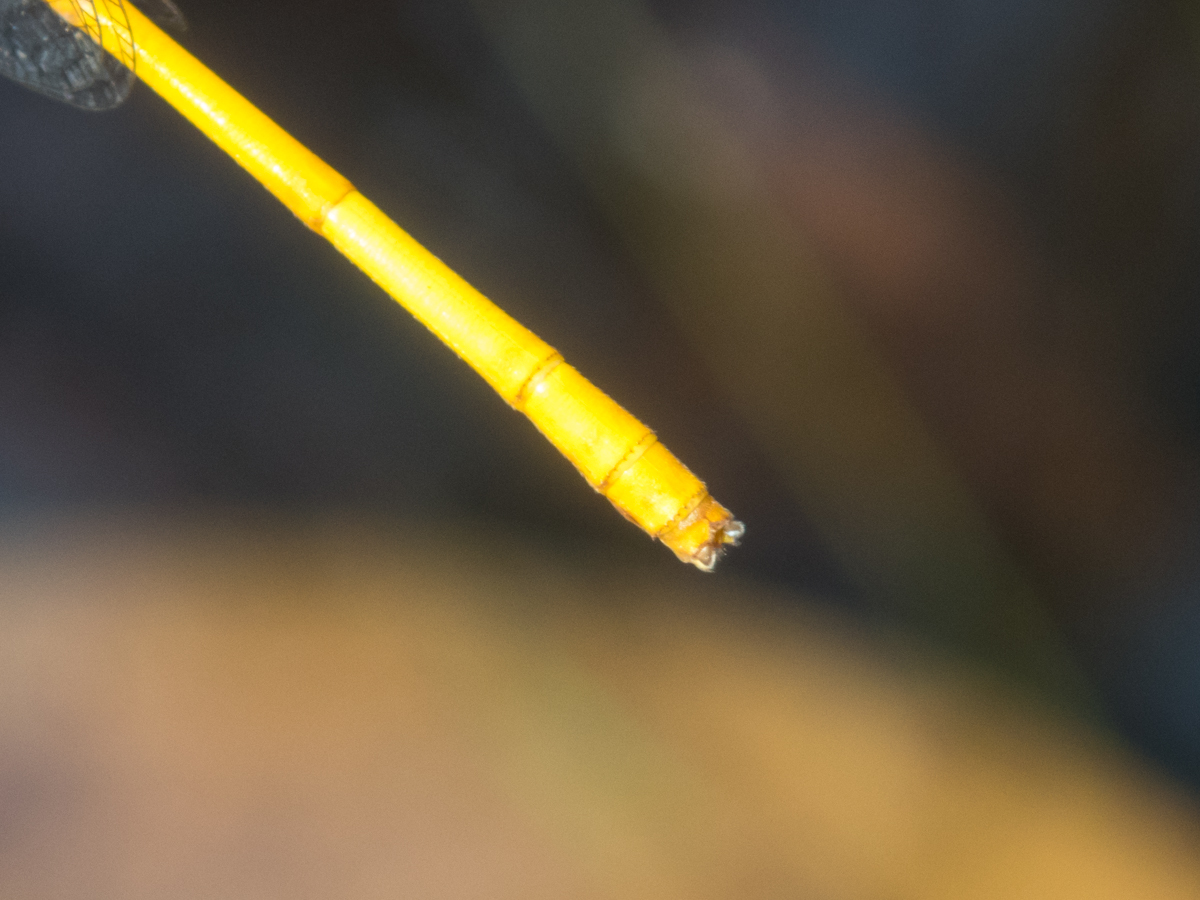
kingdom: Animalia
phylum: Arthropoda
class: Insecta
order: Odonata
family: Coenagrionidae
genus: Ceriagrion
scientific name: Ceriagrion calamineum
